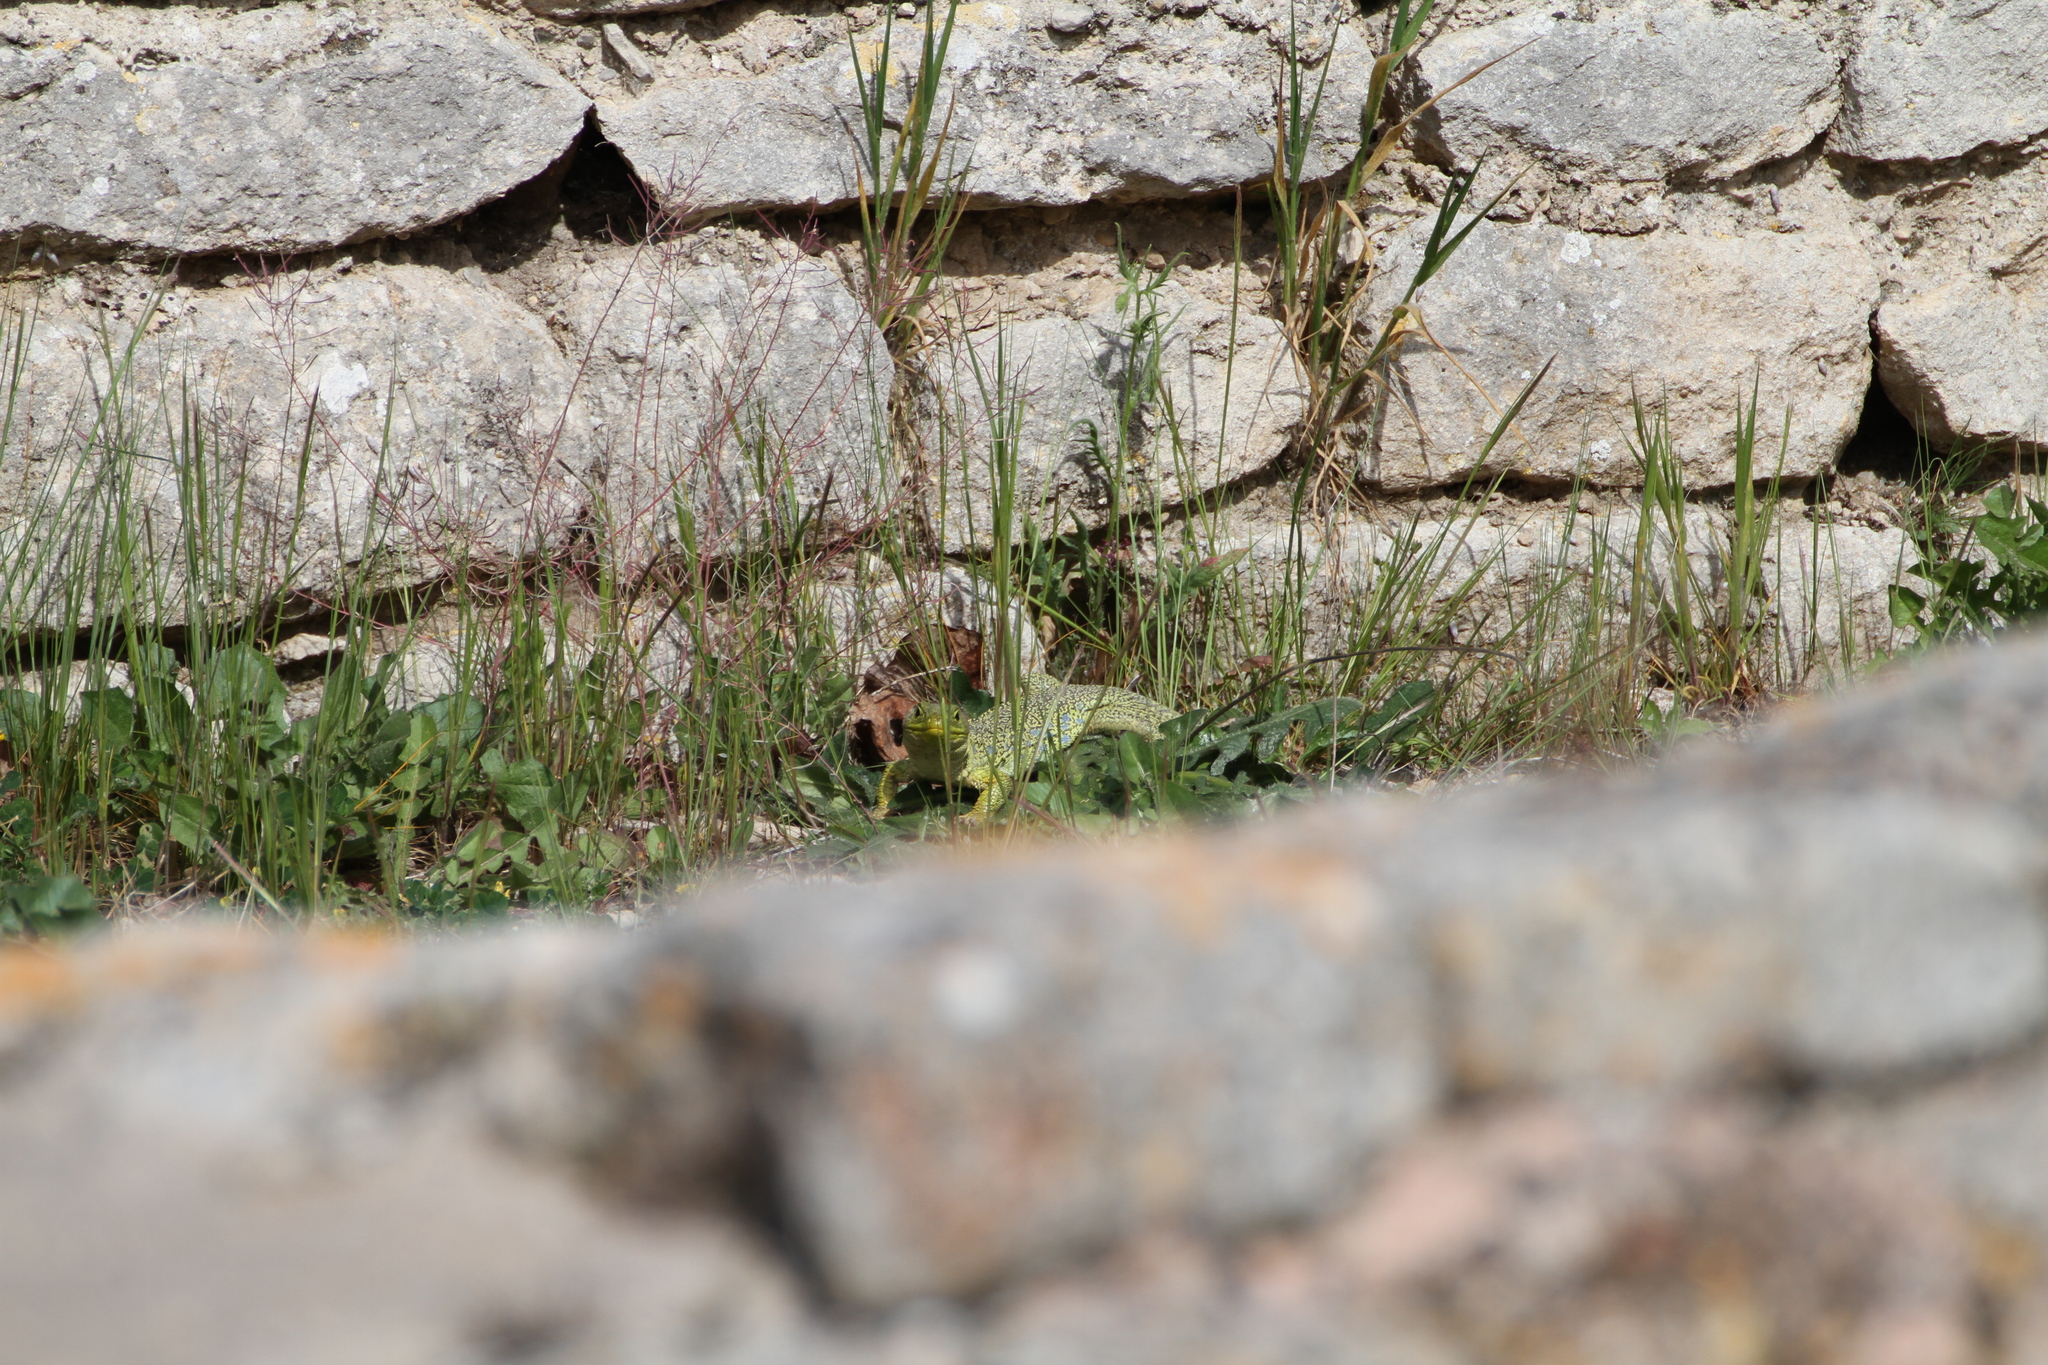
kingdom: Animalia
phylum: Chordata
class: Squamata
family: Lacertidae
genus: Timon
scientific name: Timon lepidus
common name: Ocellated lizard
